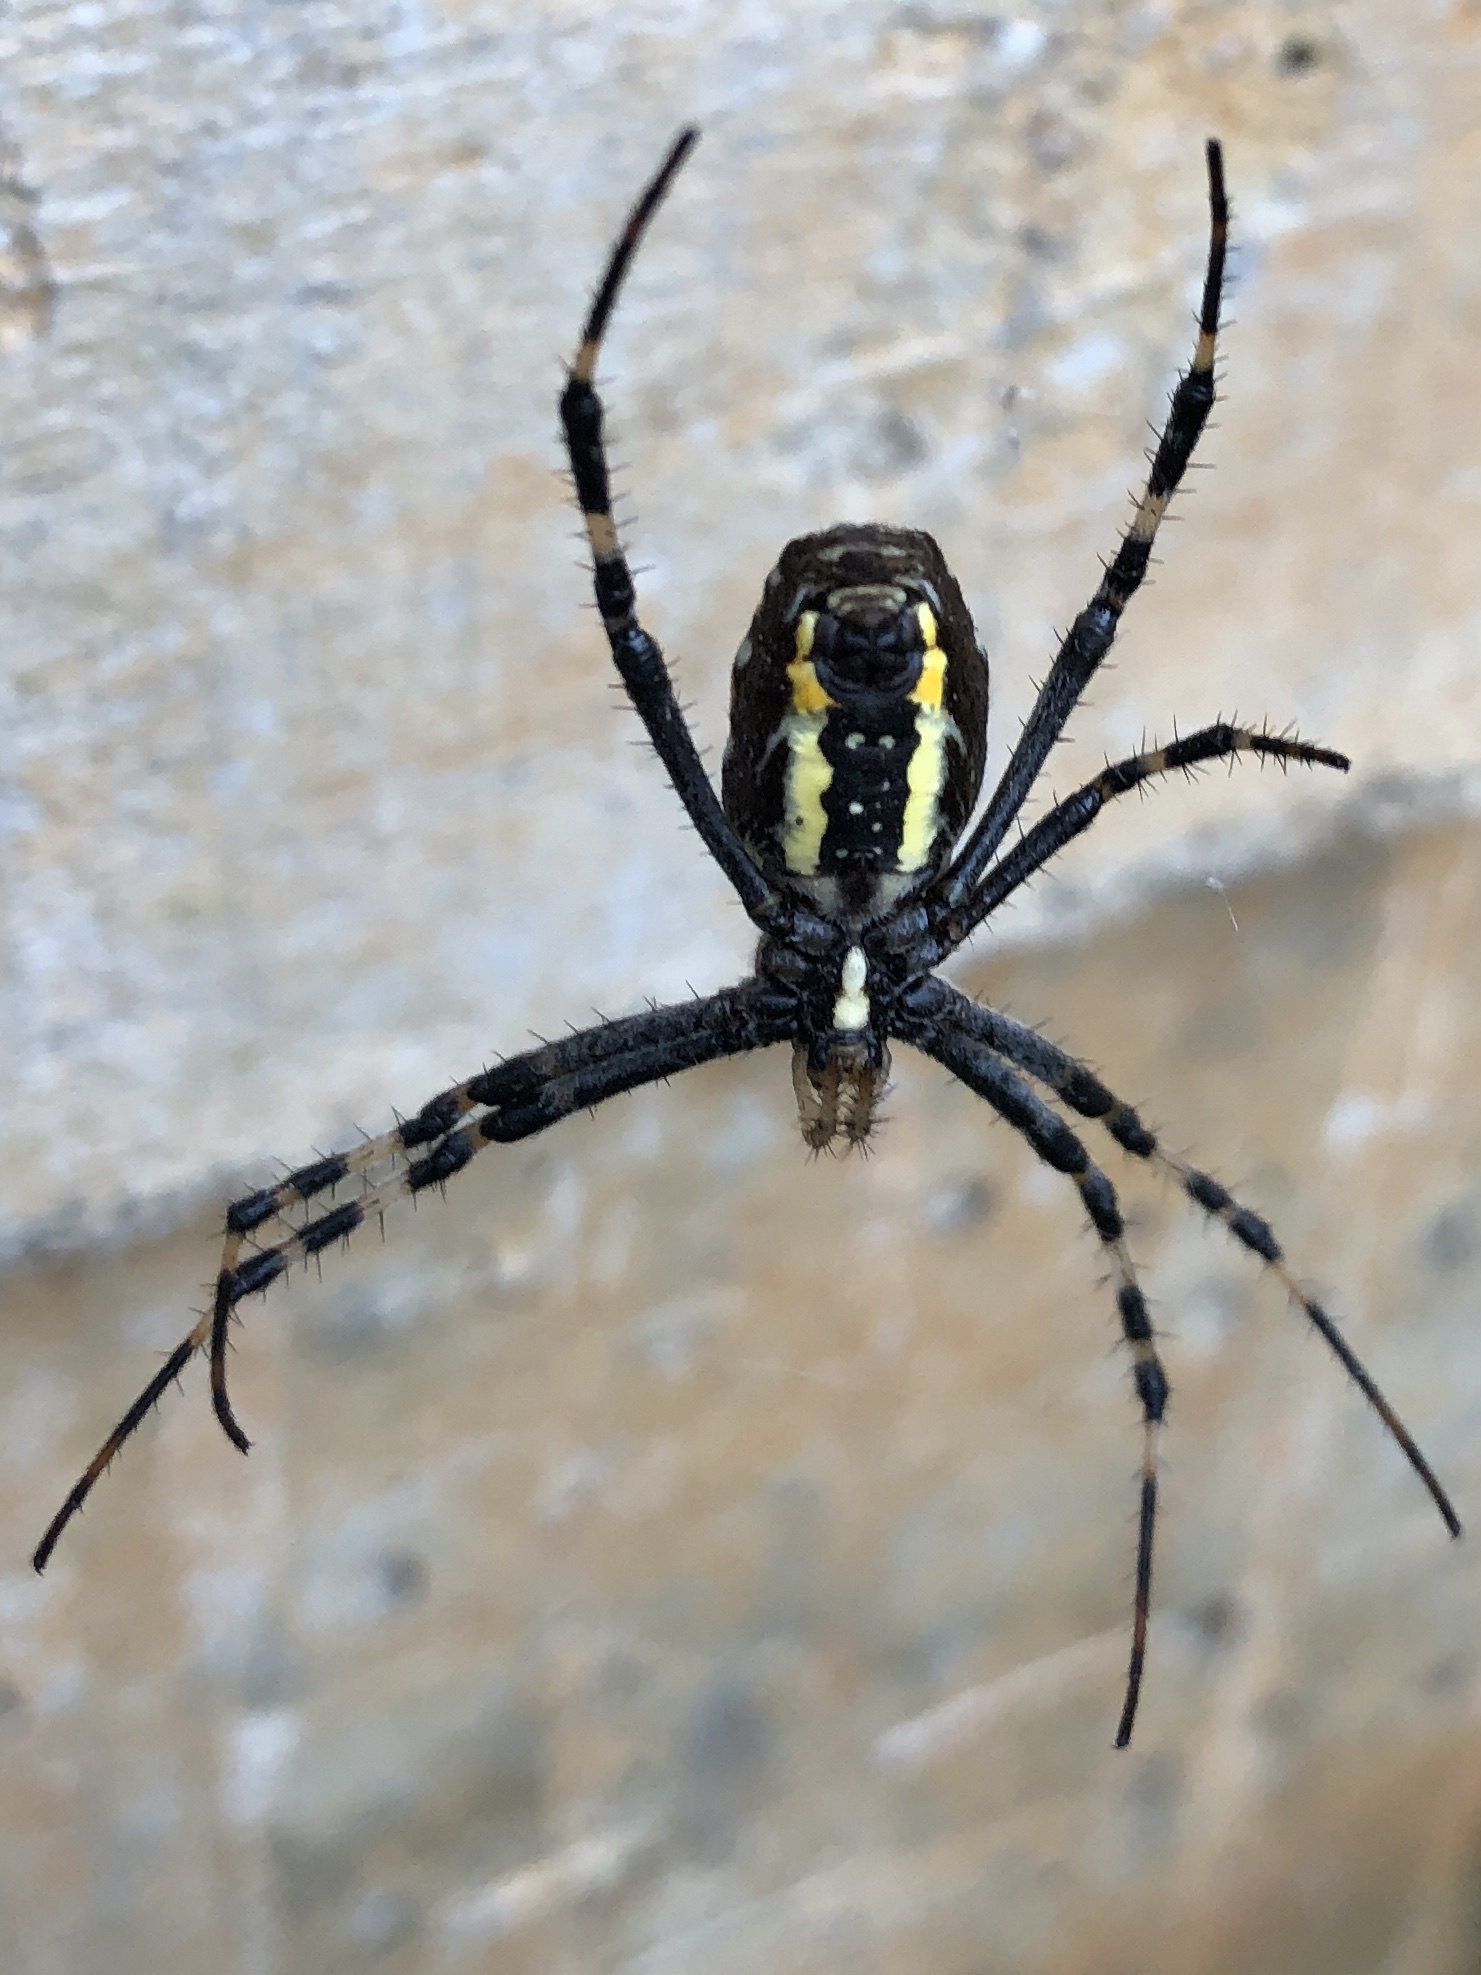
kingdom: Animalia
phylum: Arthropoda
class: Arachnida
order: Araneae
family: Araneidae
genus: Argiope
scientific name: Argiope bruennichi
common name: Wasp spider
